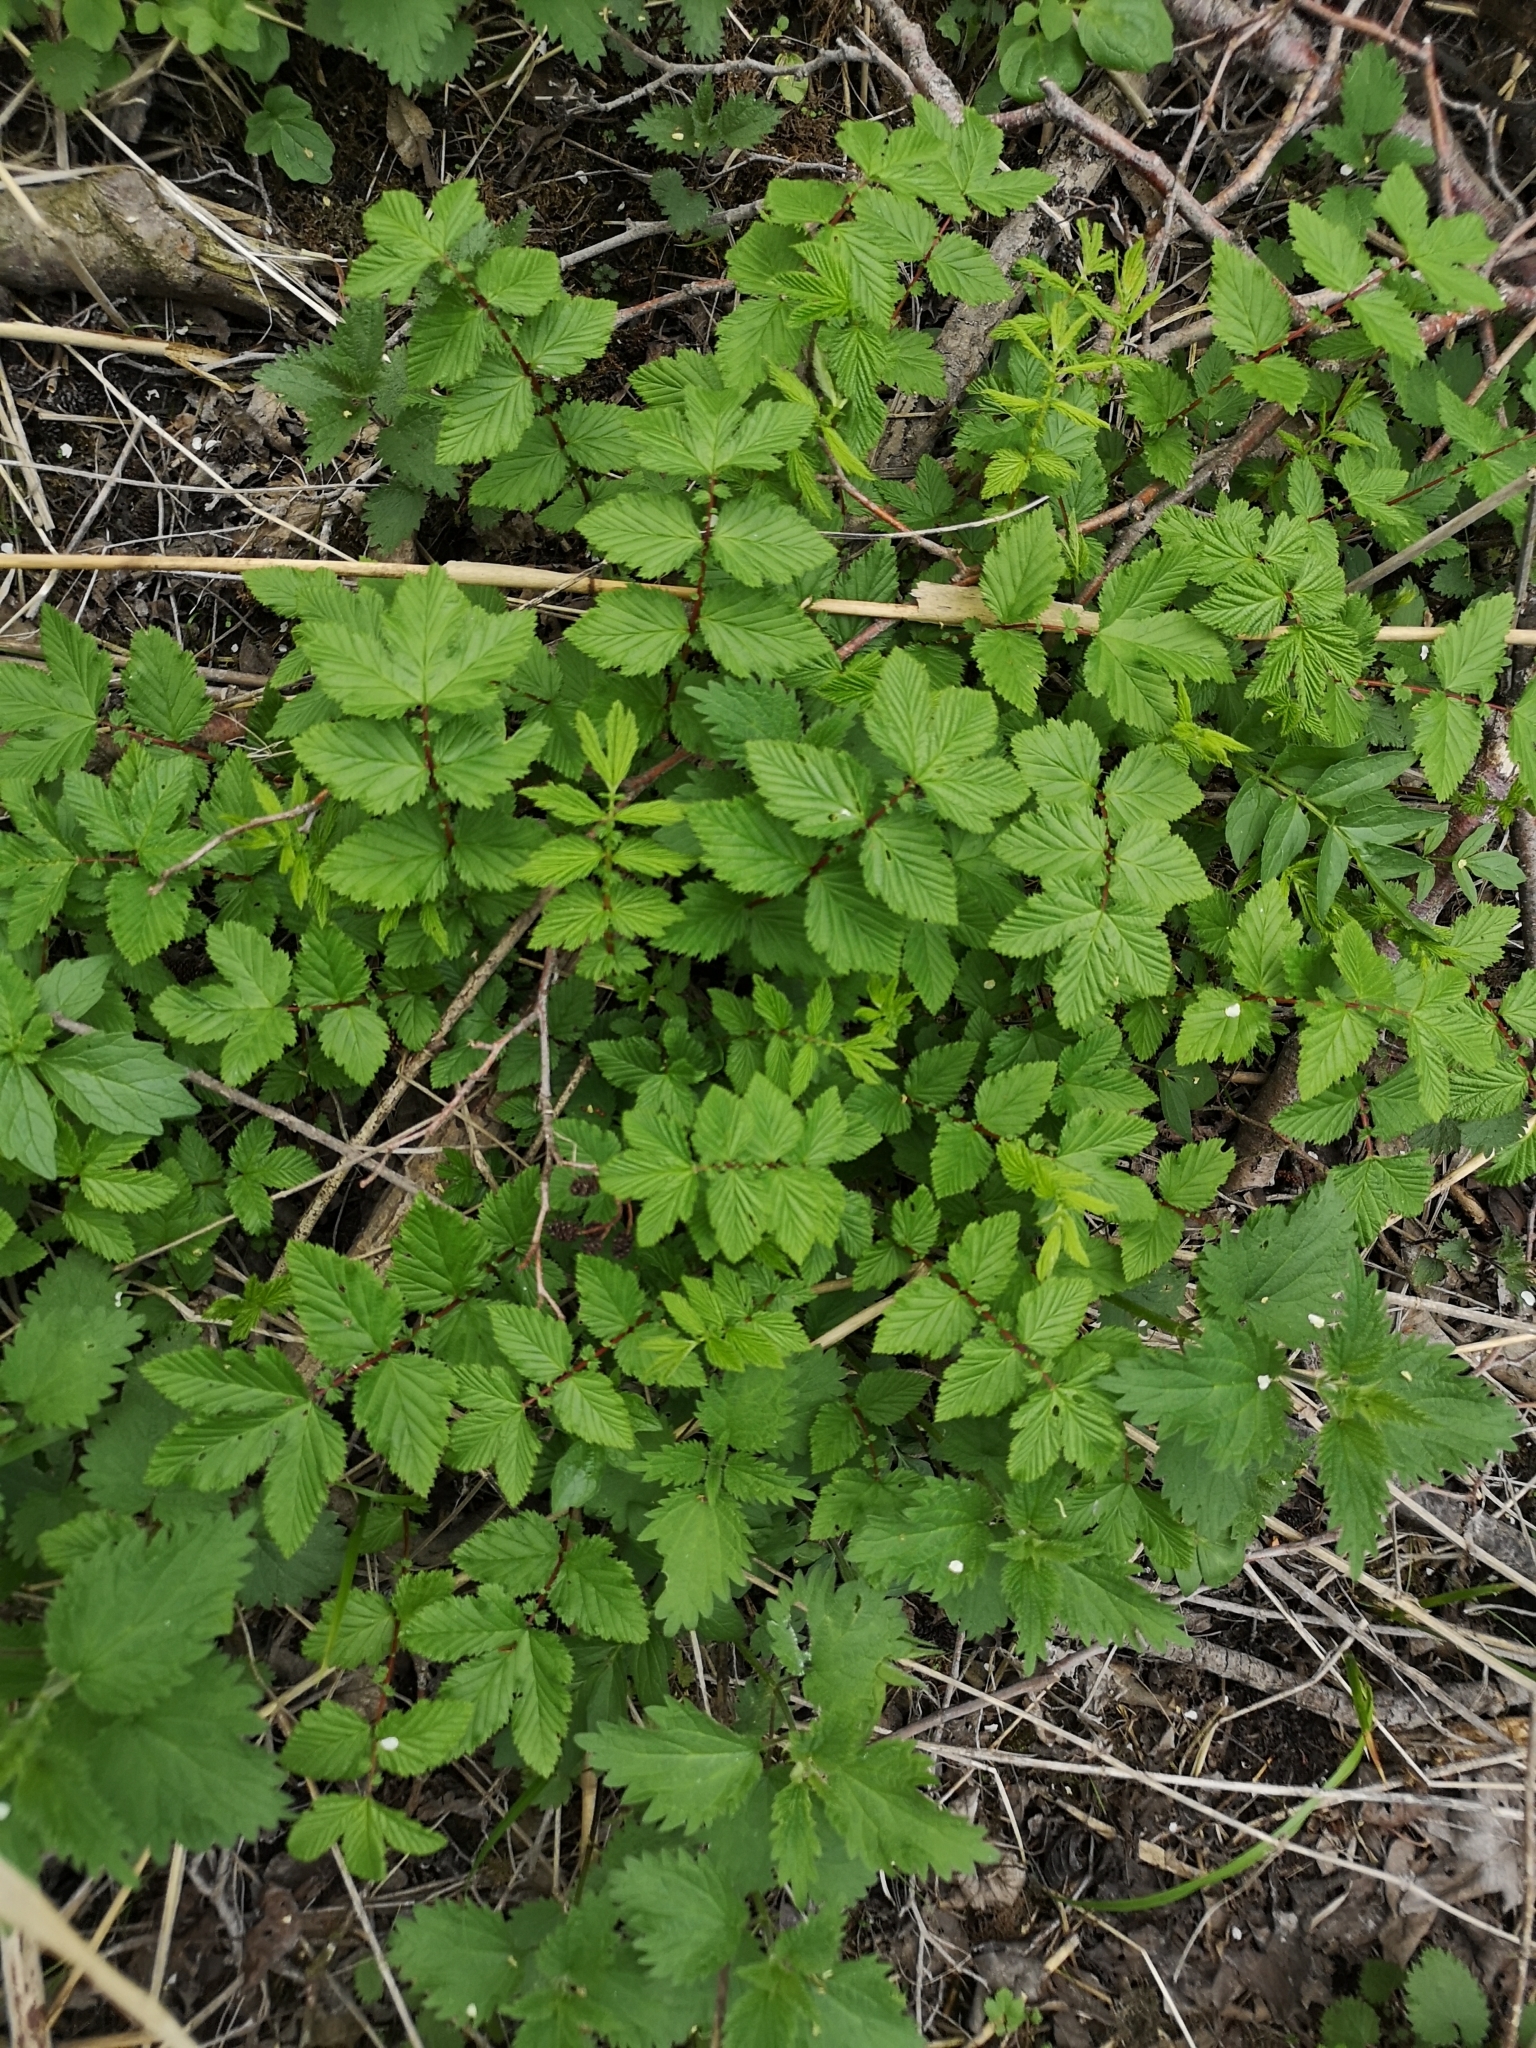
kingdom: Plantae
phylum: Tracheophyta
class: Magnoliopsida
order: Rosales
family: Rosaceae
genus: Filipendula
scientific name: Filipendula ulmaria
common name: Meadowsweet
